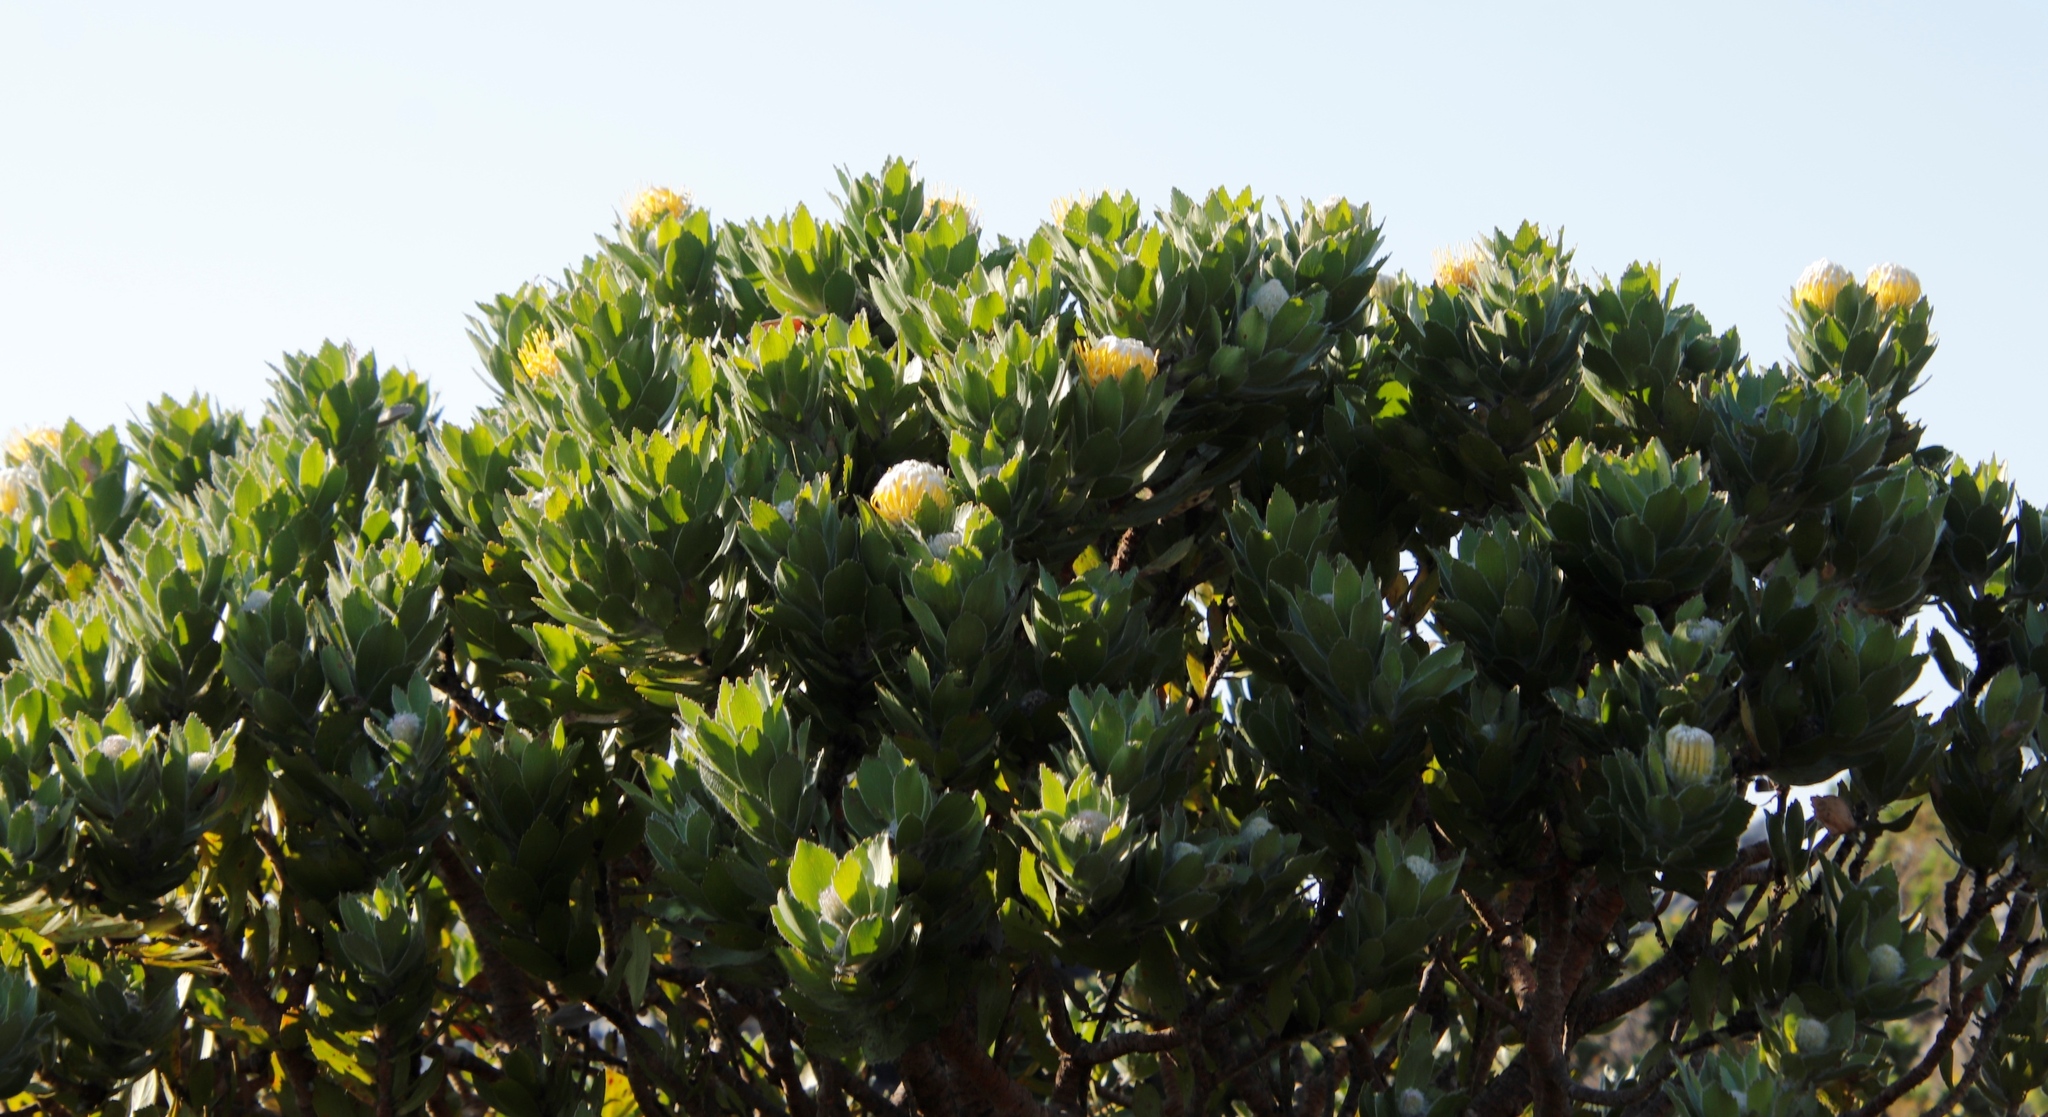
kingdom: Plantae
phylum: Tracheophyta
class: Magnoliopsida
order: Proteales
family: Proteaceae
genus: Leucospermum
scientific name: Leucospermum conocarpodendron
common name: Tree pincushion
